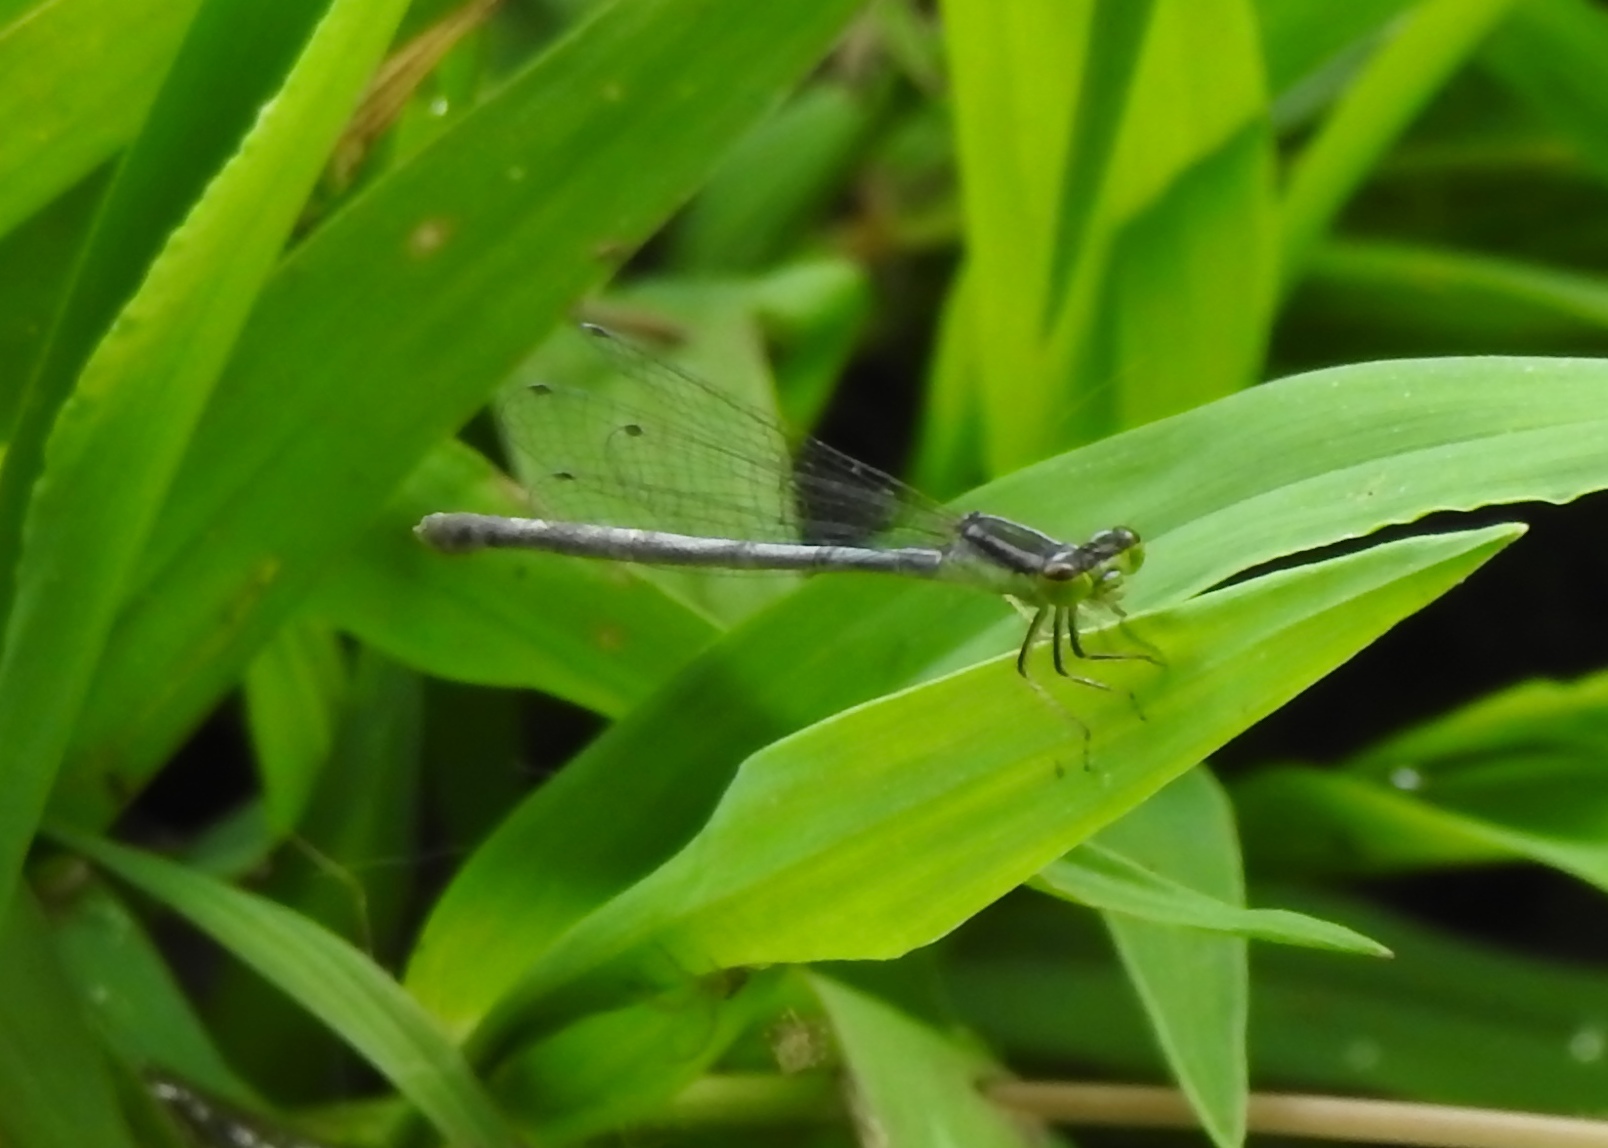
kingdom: Animalia
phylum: Arthropoda
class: Insecta
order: Odonata
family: Coenagrionidae
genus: Ischnura
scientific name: Ischnura verticalis
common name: Eastern forktail
